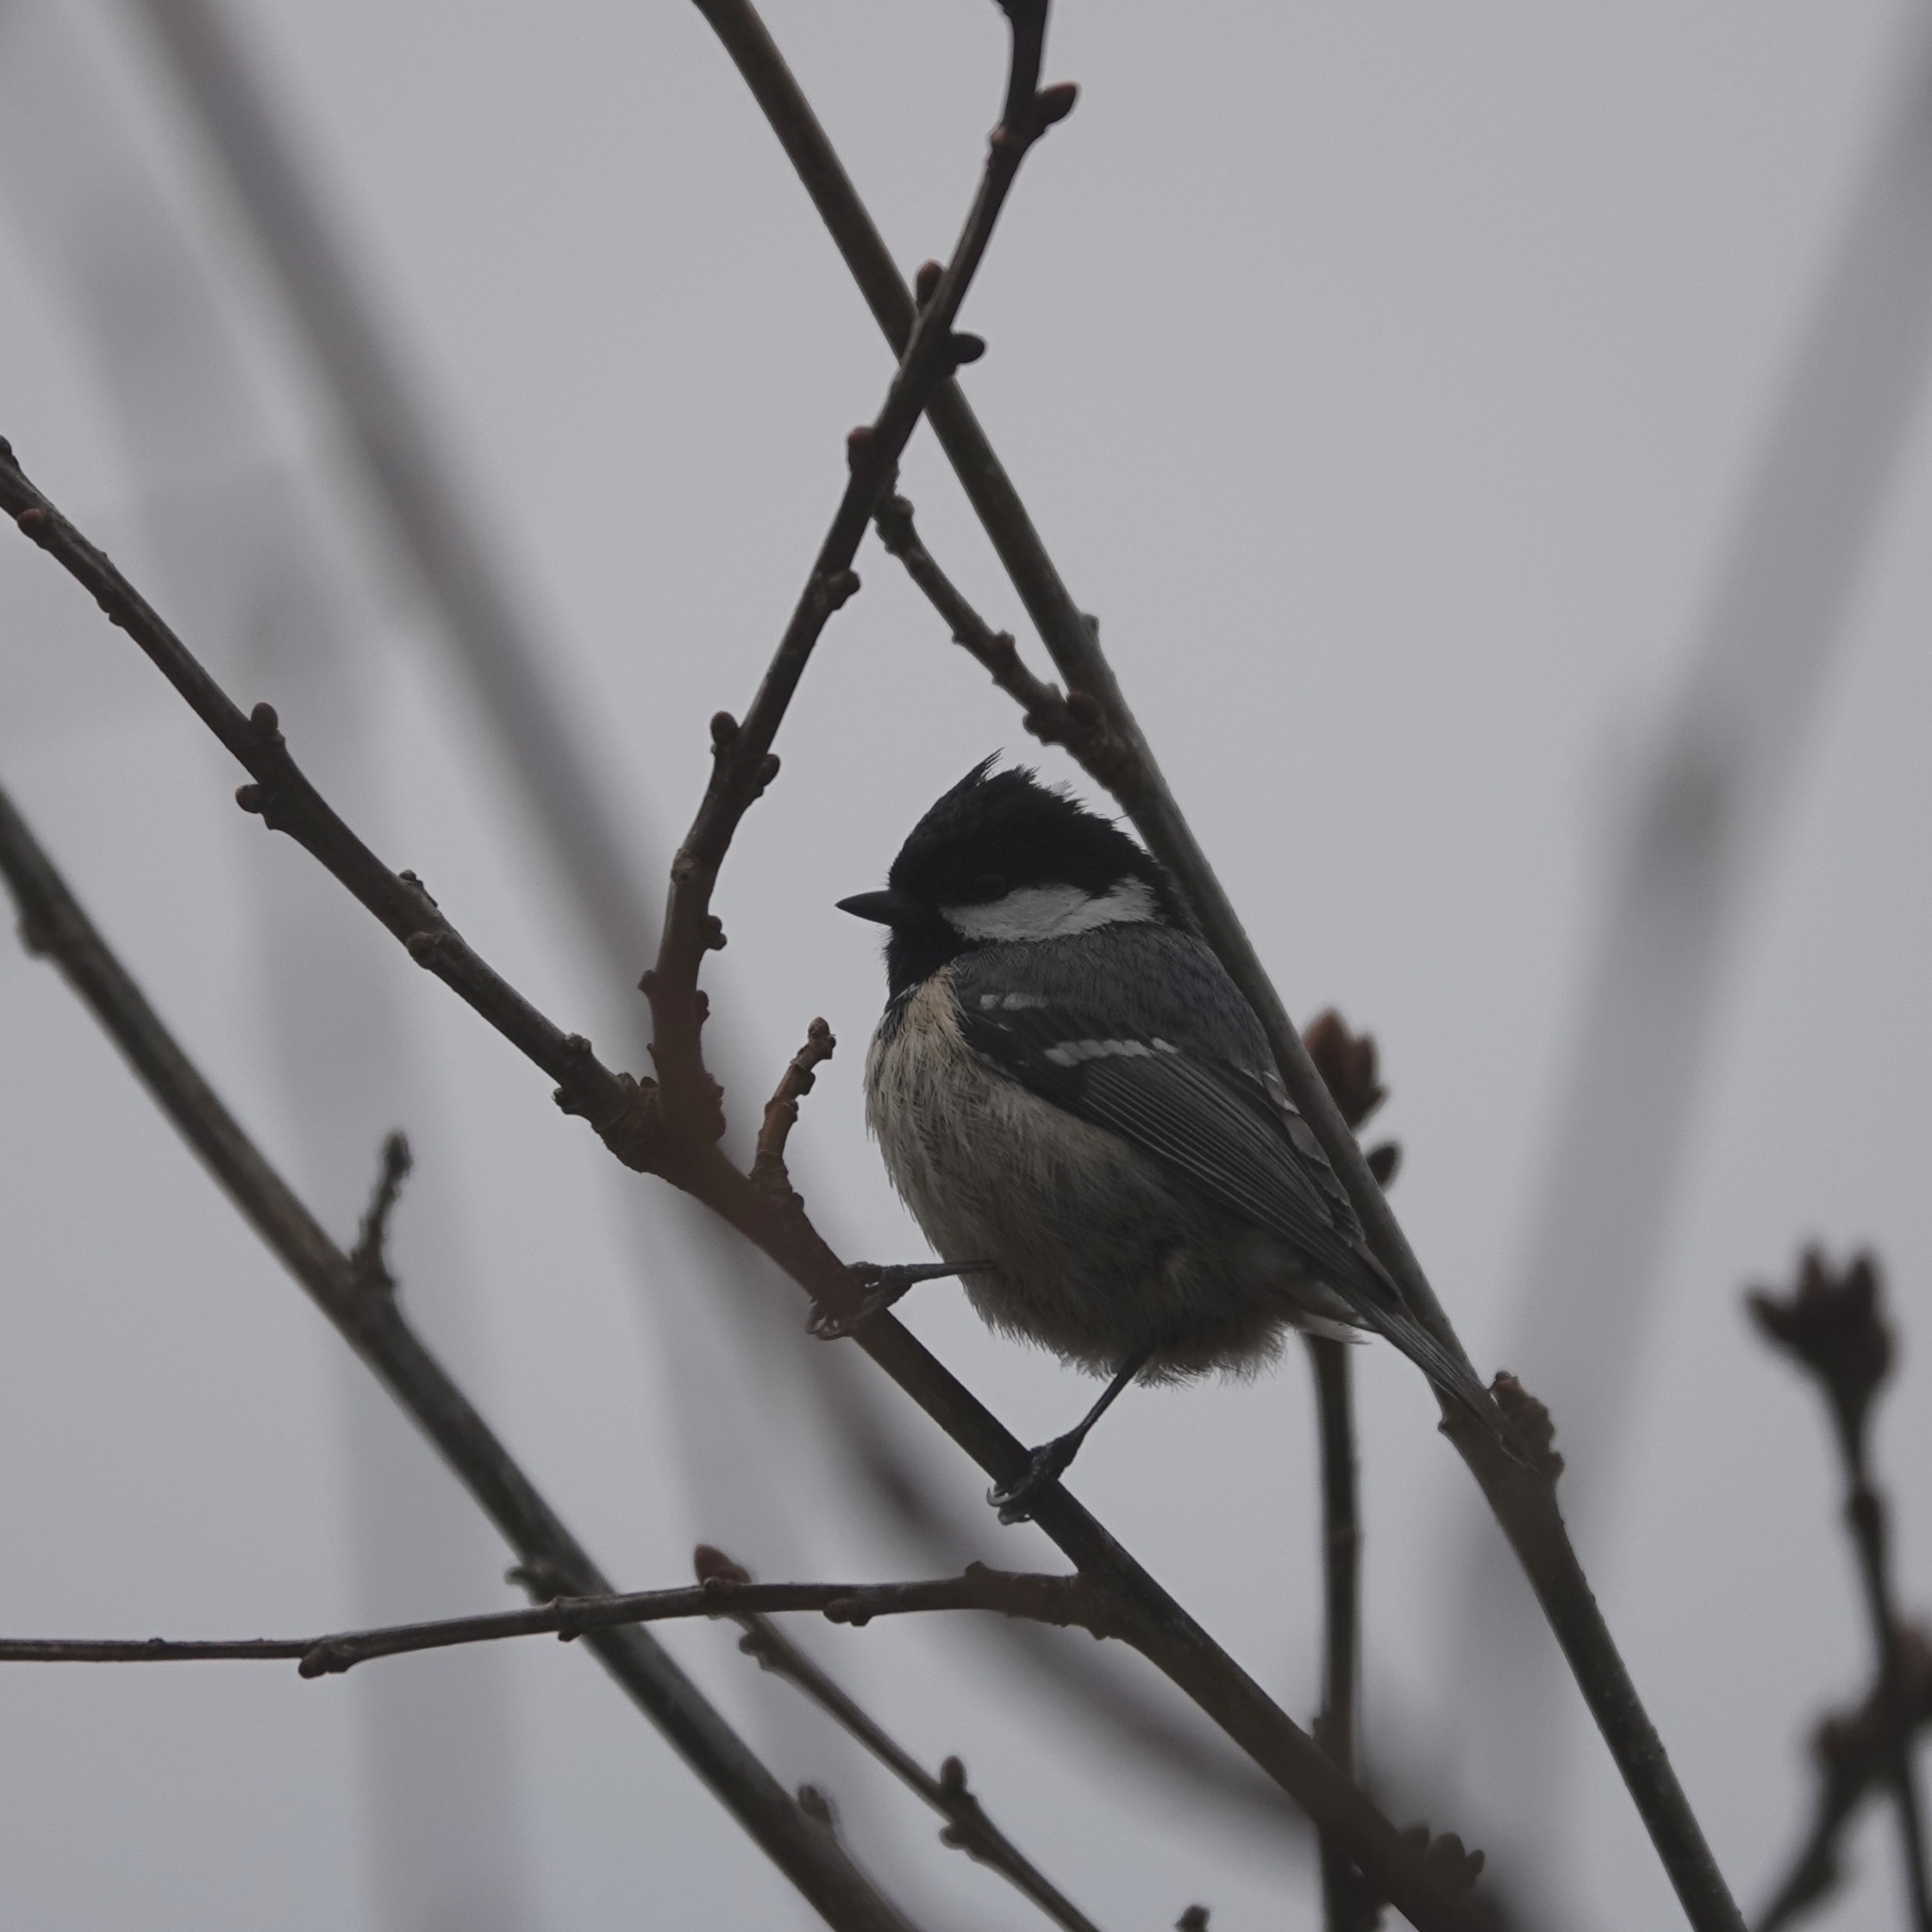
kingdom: Animalia
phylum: Chordata
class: Aves
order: Passeriformes
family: Paridae
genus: Periparus
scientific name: Periparus ater
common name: Coal tit
